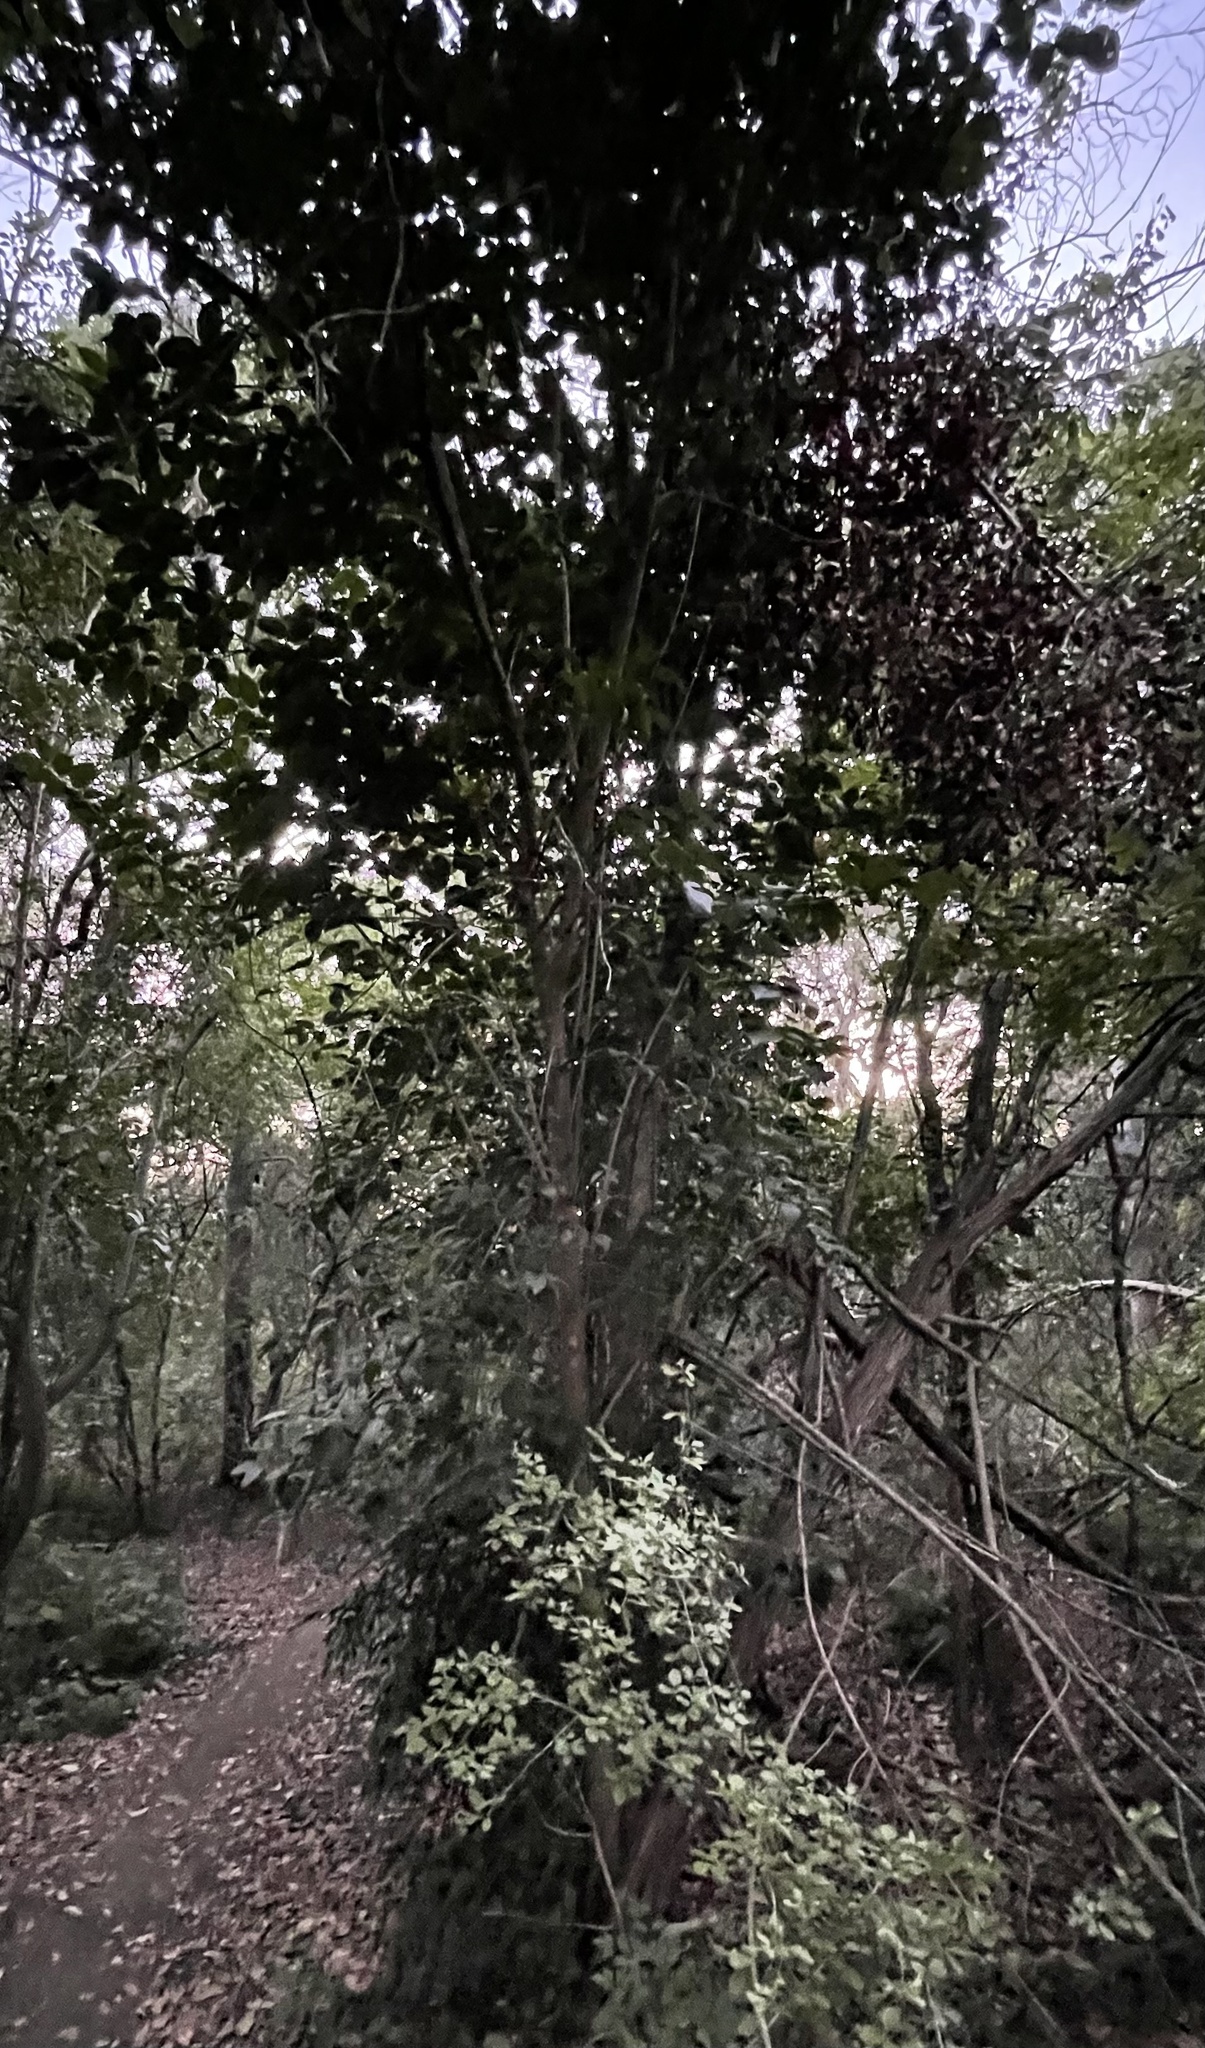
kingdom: Plantae
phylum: Tracheophyta
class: Magnoliopsida
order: Lamiales
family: Oleaceae
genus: Ligustrum
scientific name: Ligustrum lucidum
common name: Glossy privet
